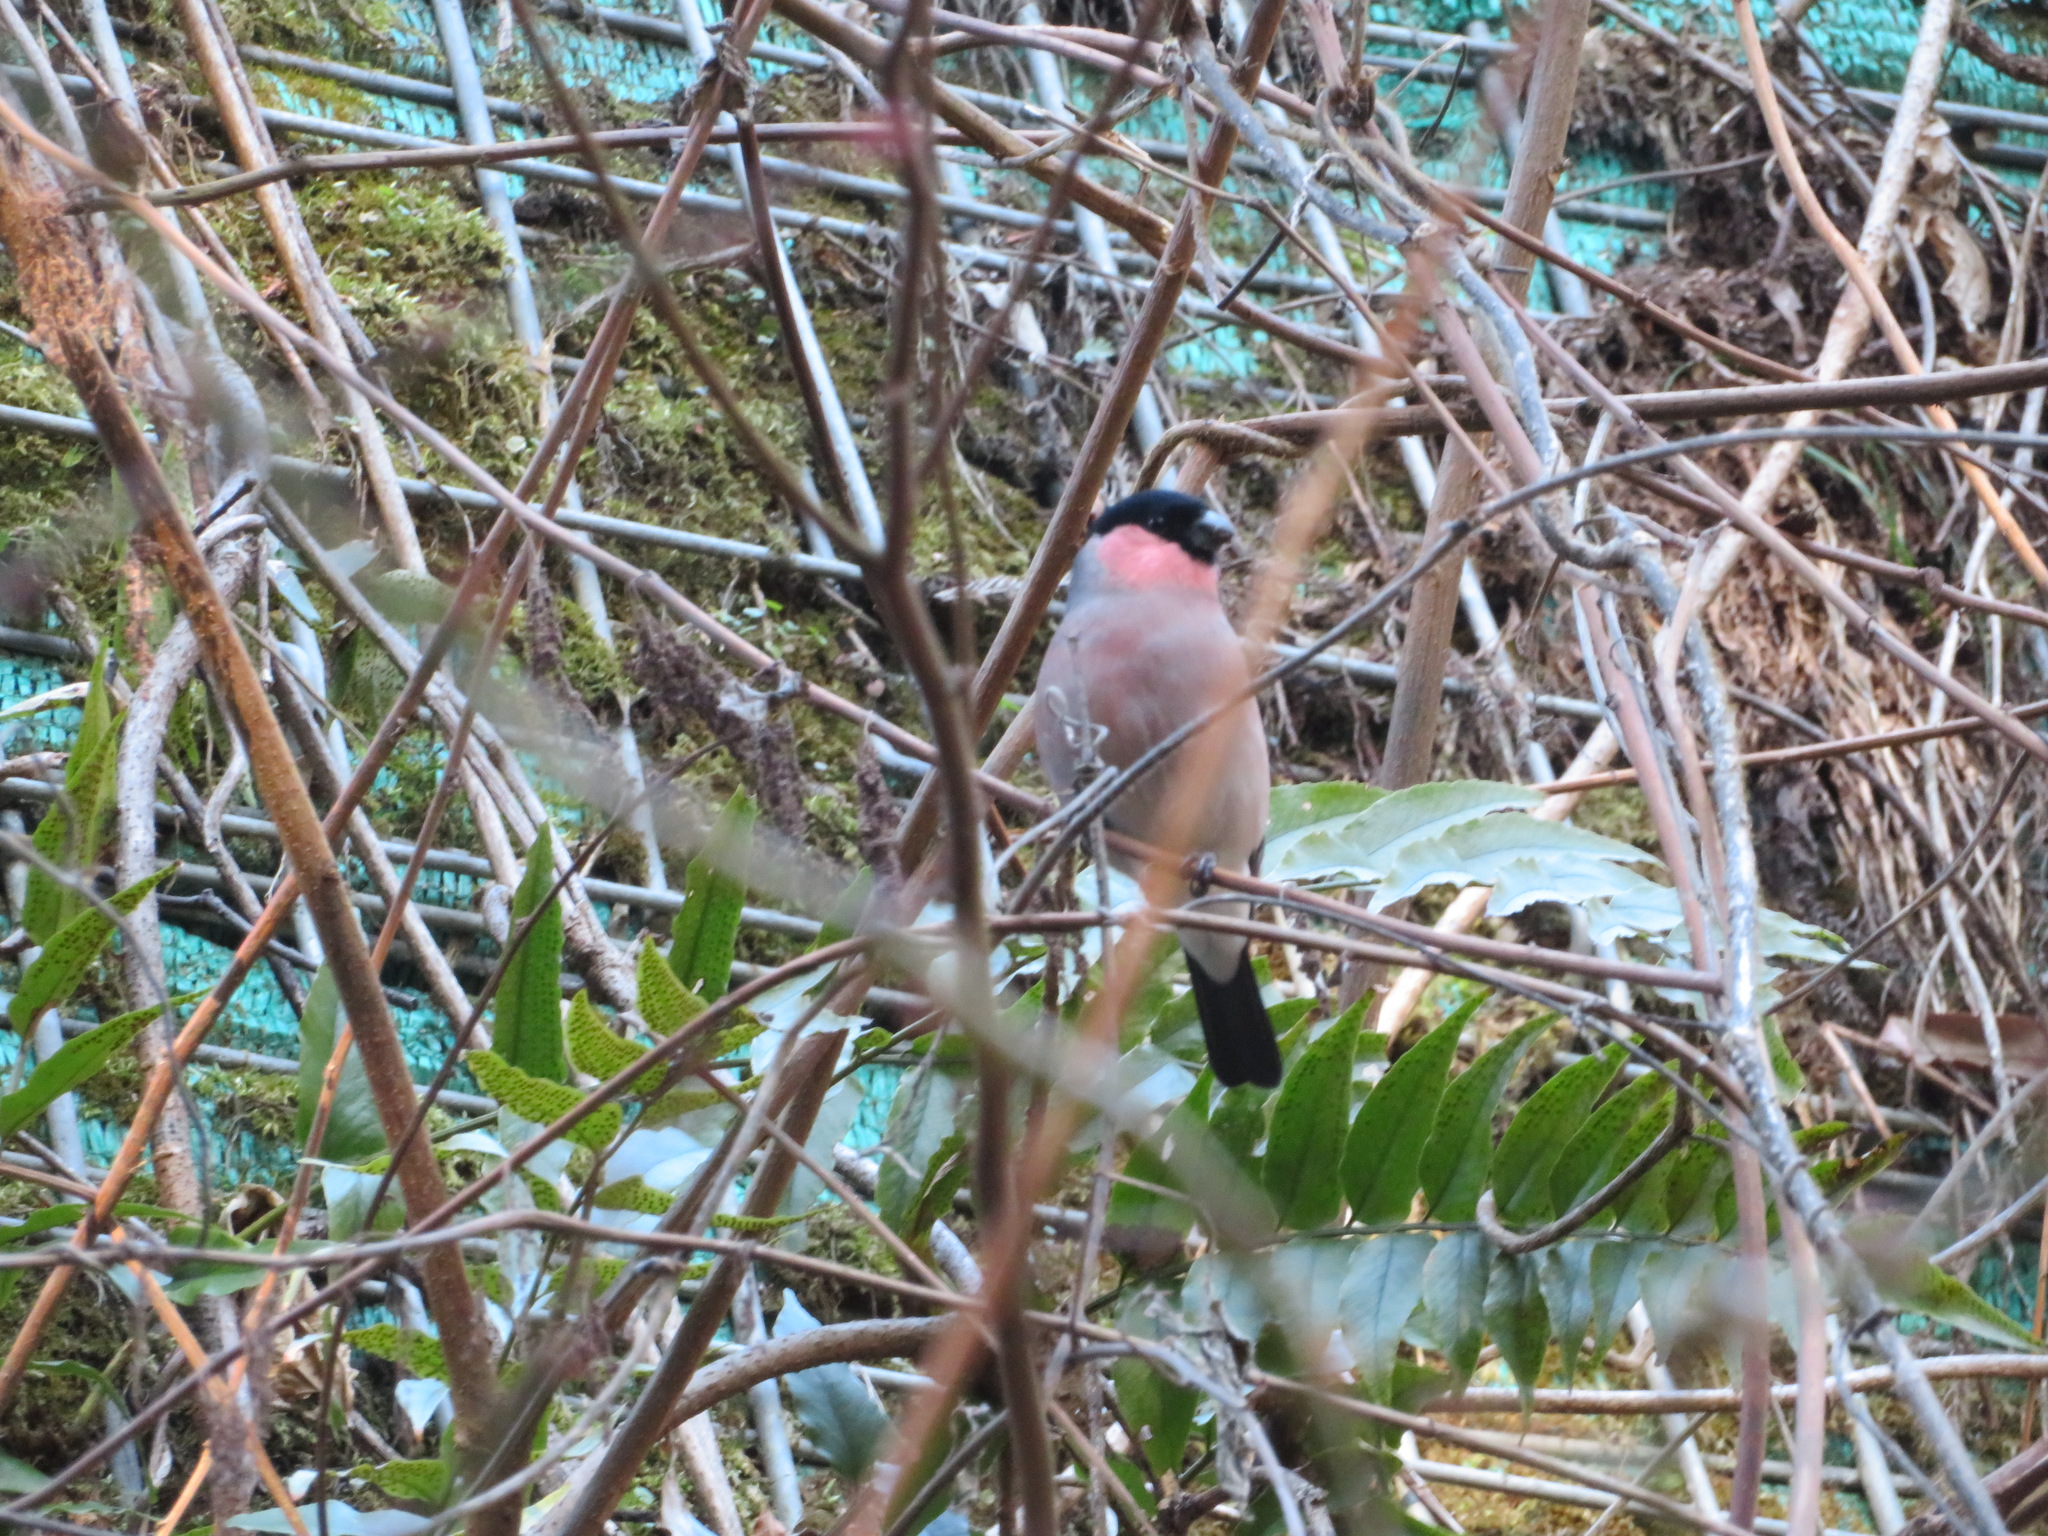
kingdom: Animalia
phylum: Chordata
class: Aves
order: Passeriformes
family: Fringillidae
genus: Pyrrhula
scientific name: Pyrrhula pyrrhula
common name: Eurasian bullfinch
